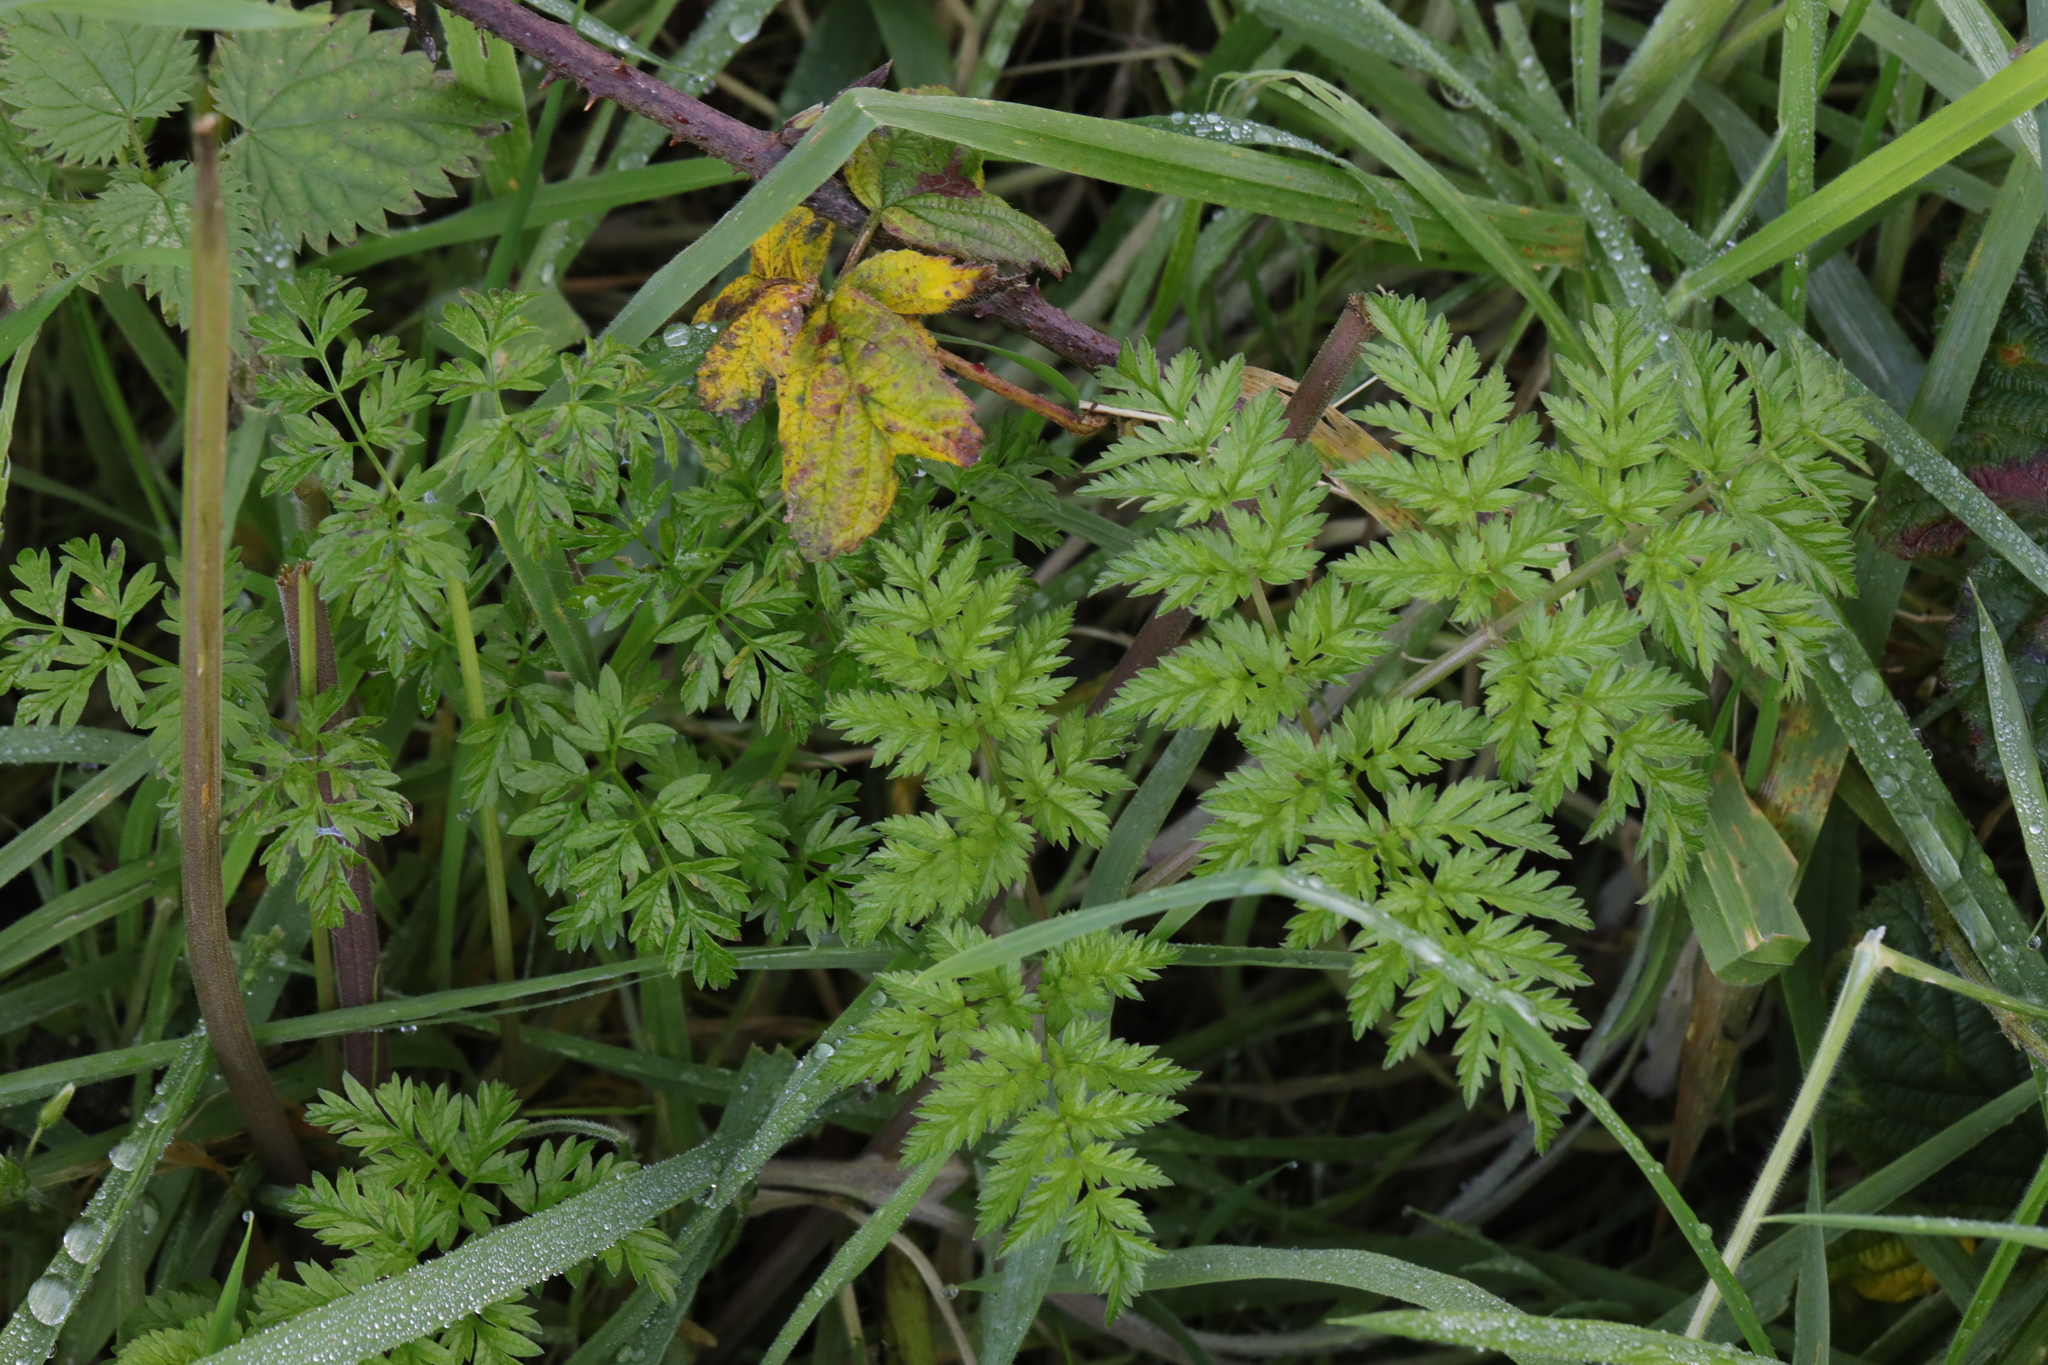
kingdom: Plantae
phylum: Tracheophyta
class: Magnoliopsida
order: Apiales
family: Apiaceae
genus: Anthriscus
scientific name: Anthriscus sylvestris
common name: Cow parsley
